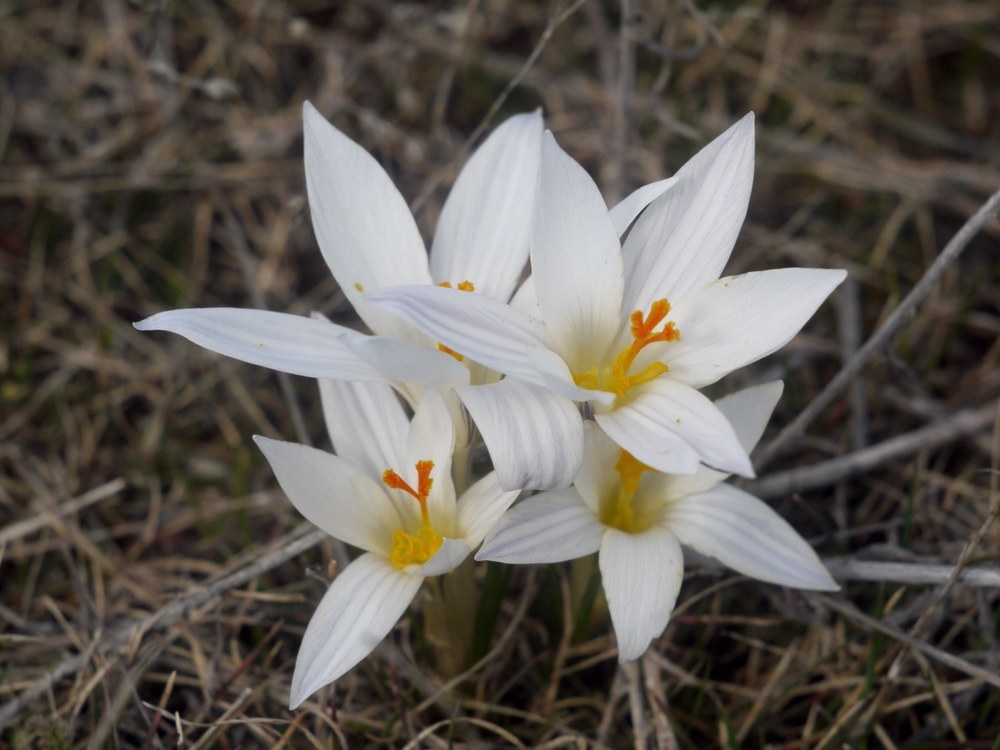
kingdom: Plantae
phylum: Tracheophyta
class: Liliopsida
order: Asparagales
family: Iridaceae
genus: Crocus
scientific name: Crocus reticulatus
